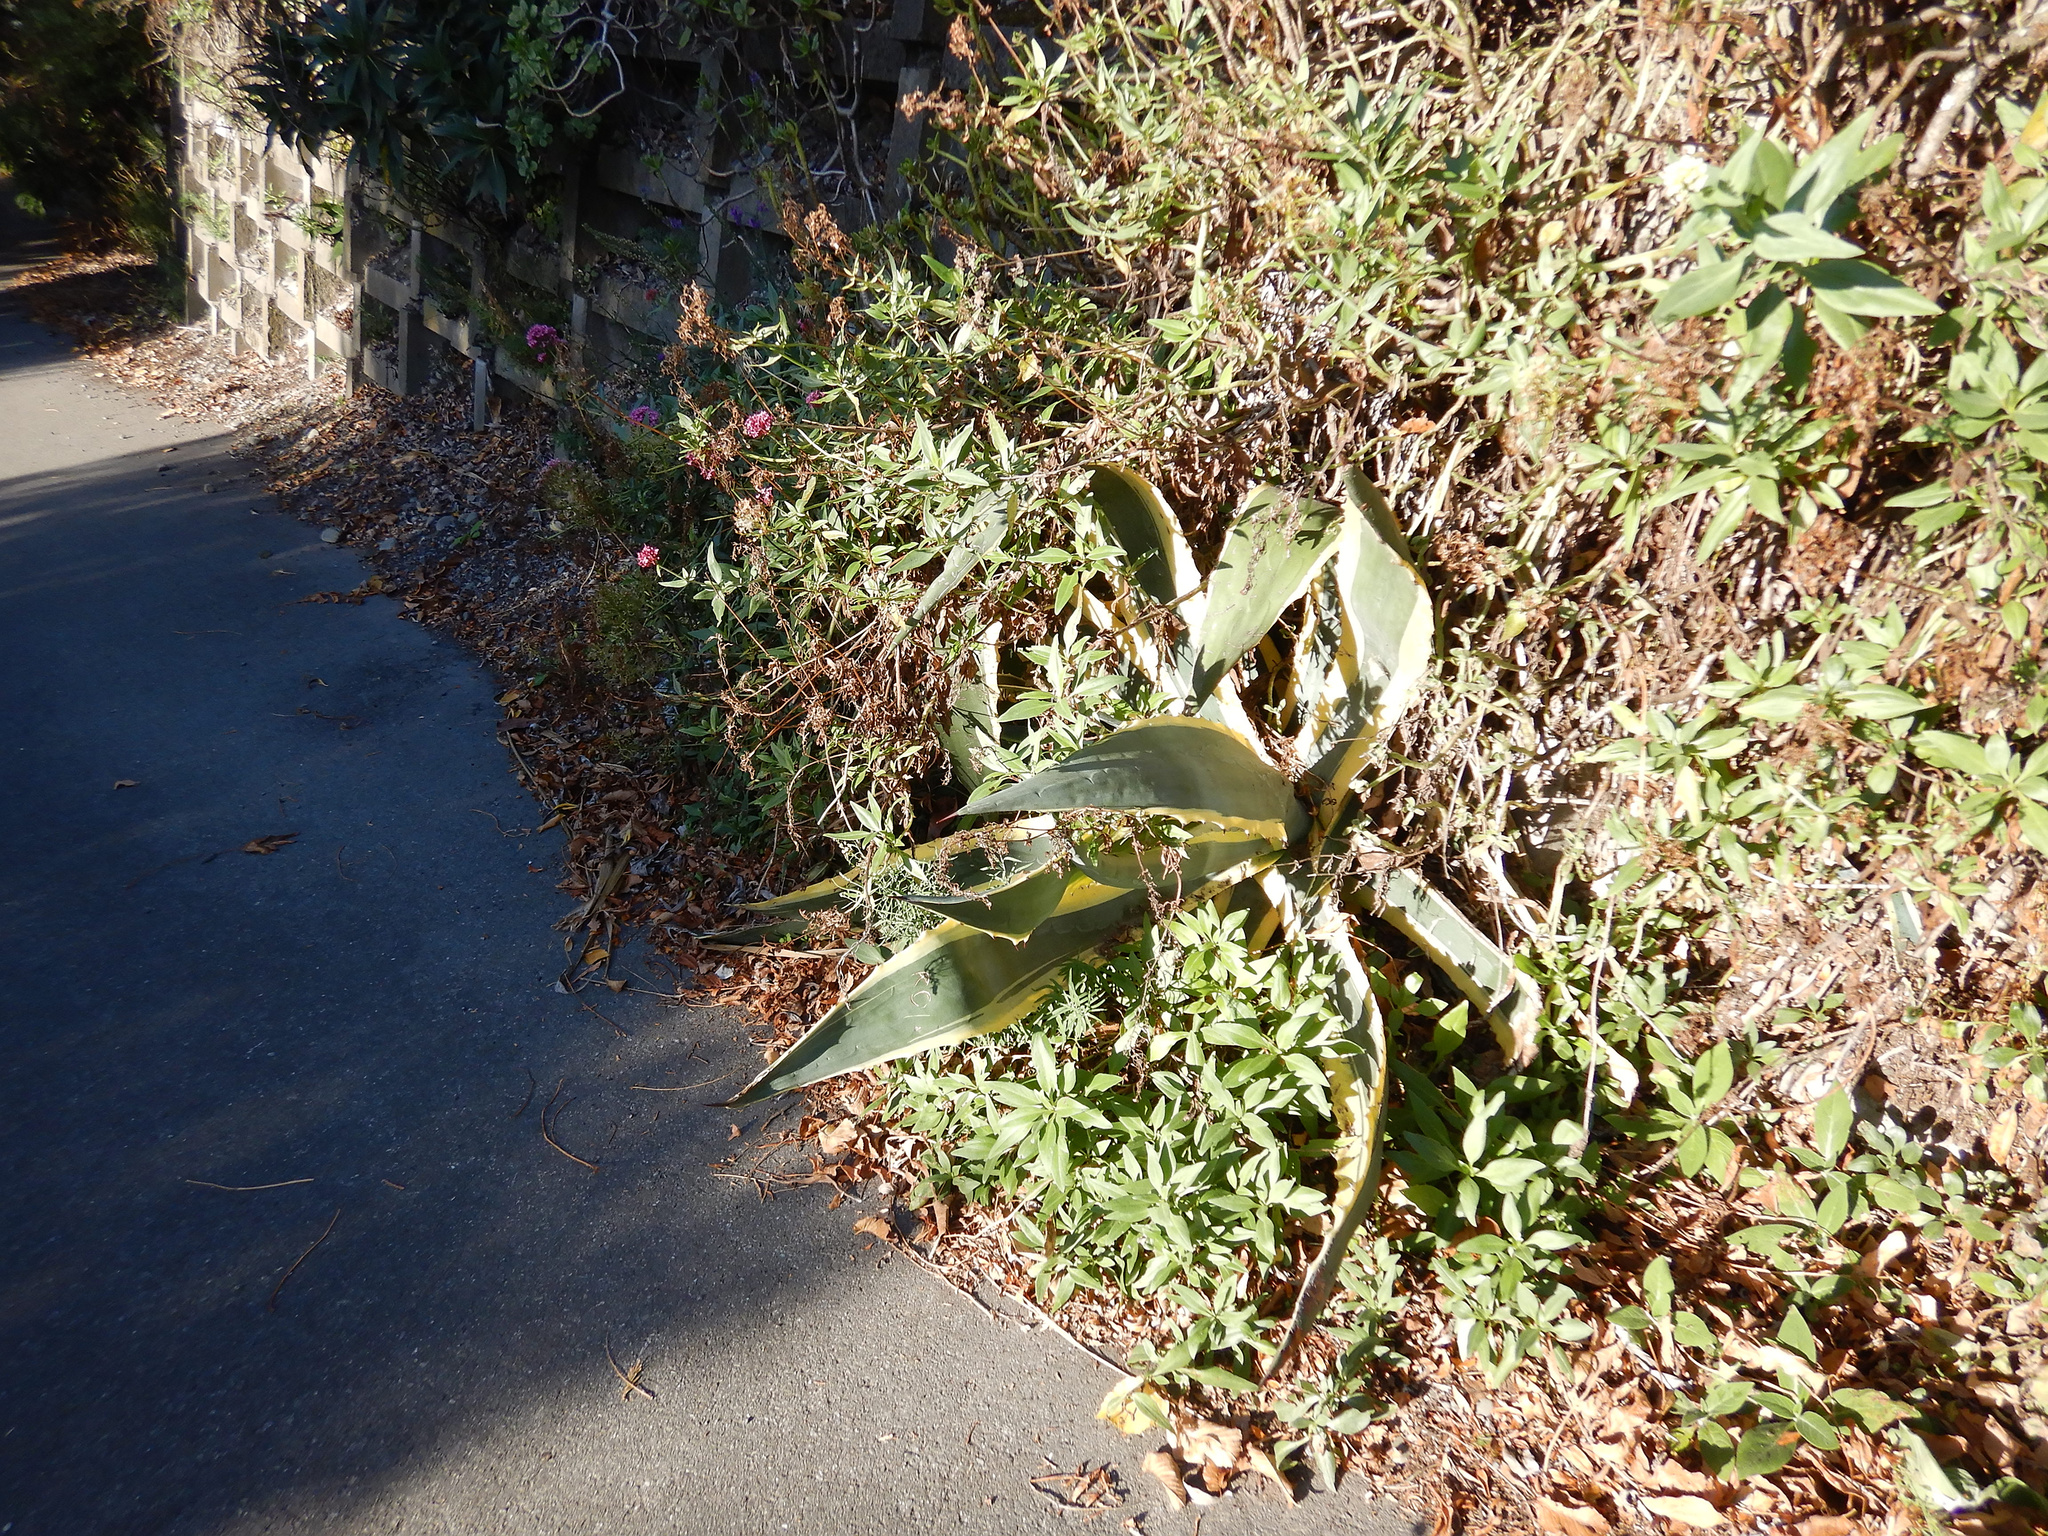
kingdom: Plantae
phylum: Tracheophyta
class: Liliopsida
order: Asparagales
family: Asparagaceae
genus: Agave
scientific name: Agave americana
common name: Centuryplant
